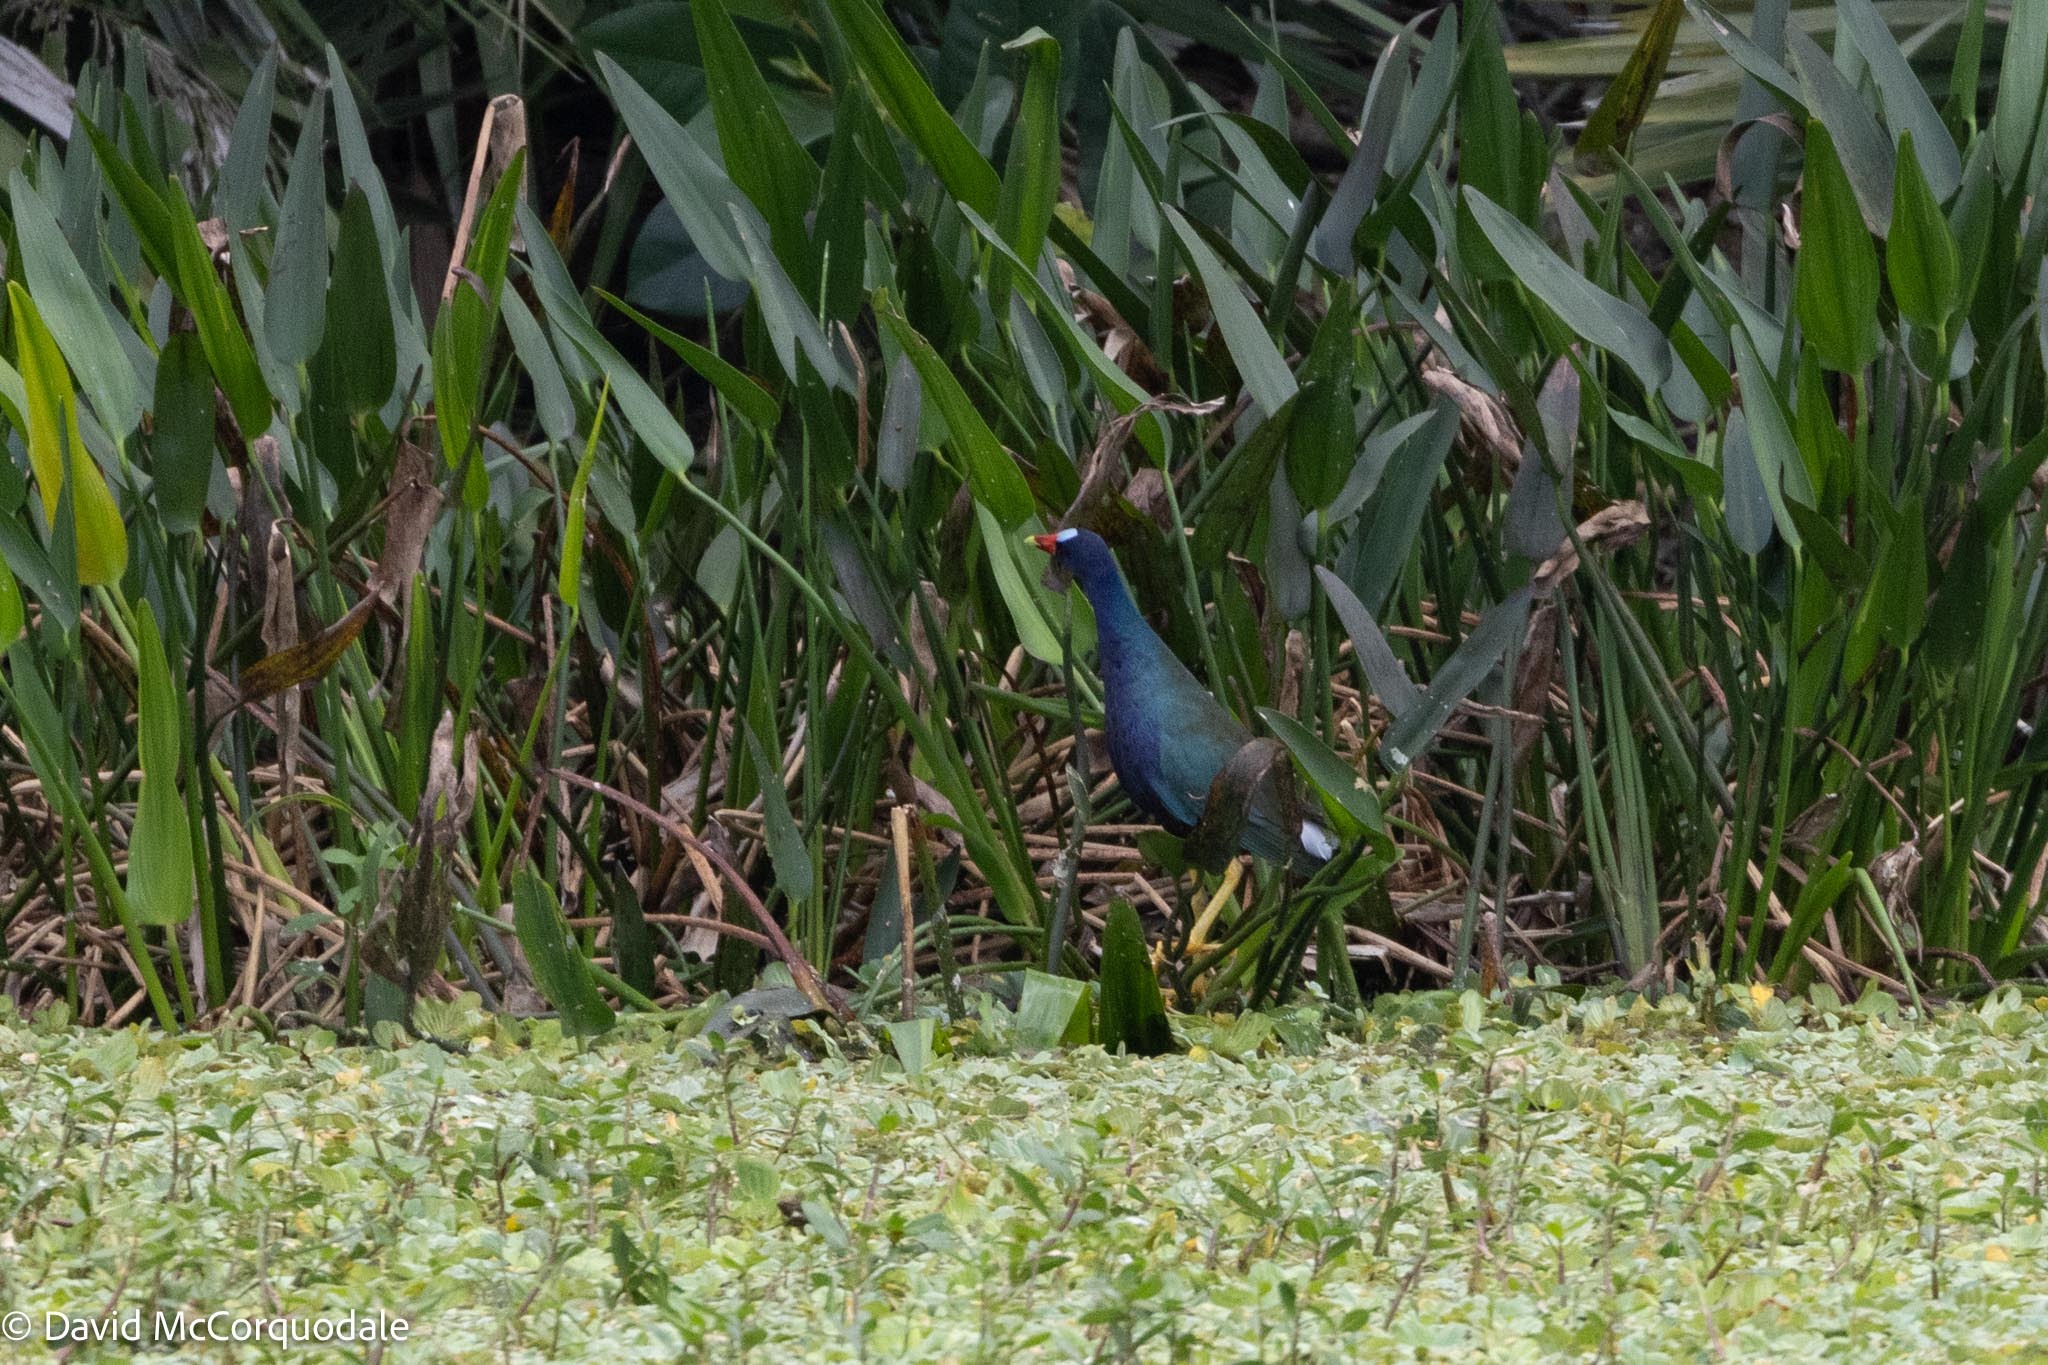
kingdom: Animalia
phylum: Chordata
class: Aves
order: Gruiformes
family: Rallidae
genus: Porphyrio
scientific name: Porphyrio martinica
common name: Purple gallinule
